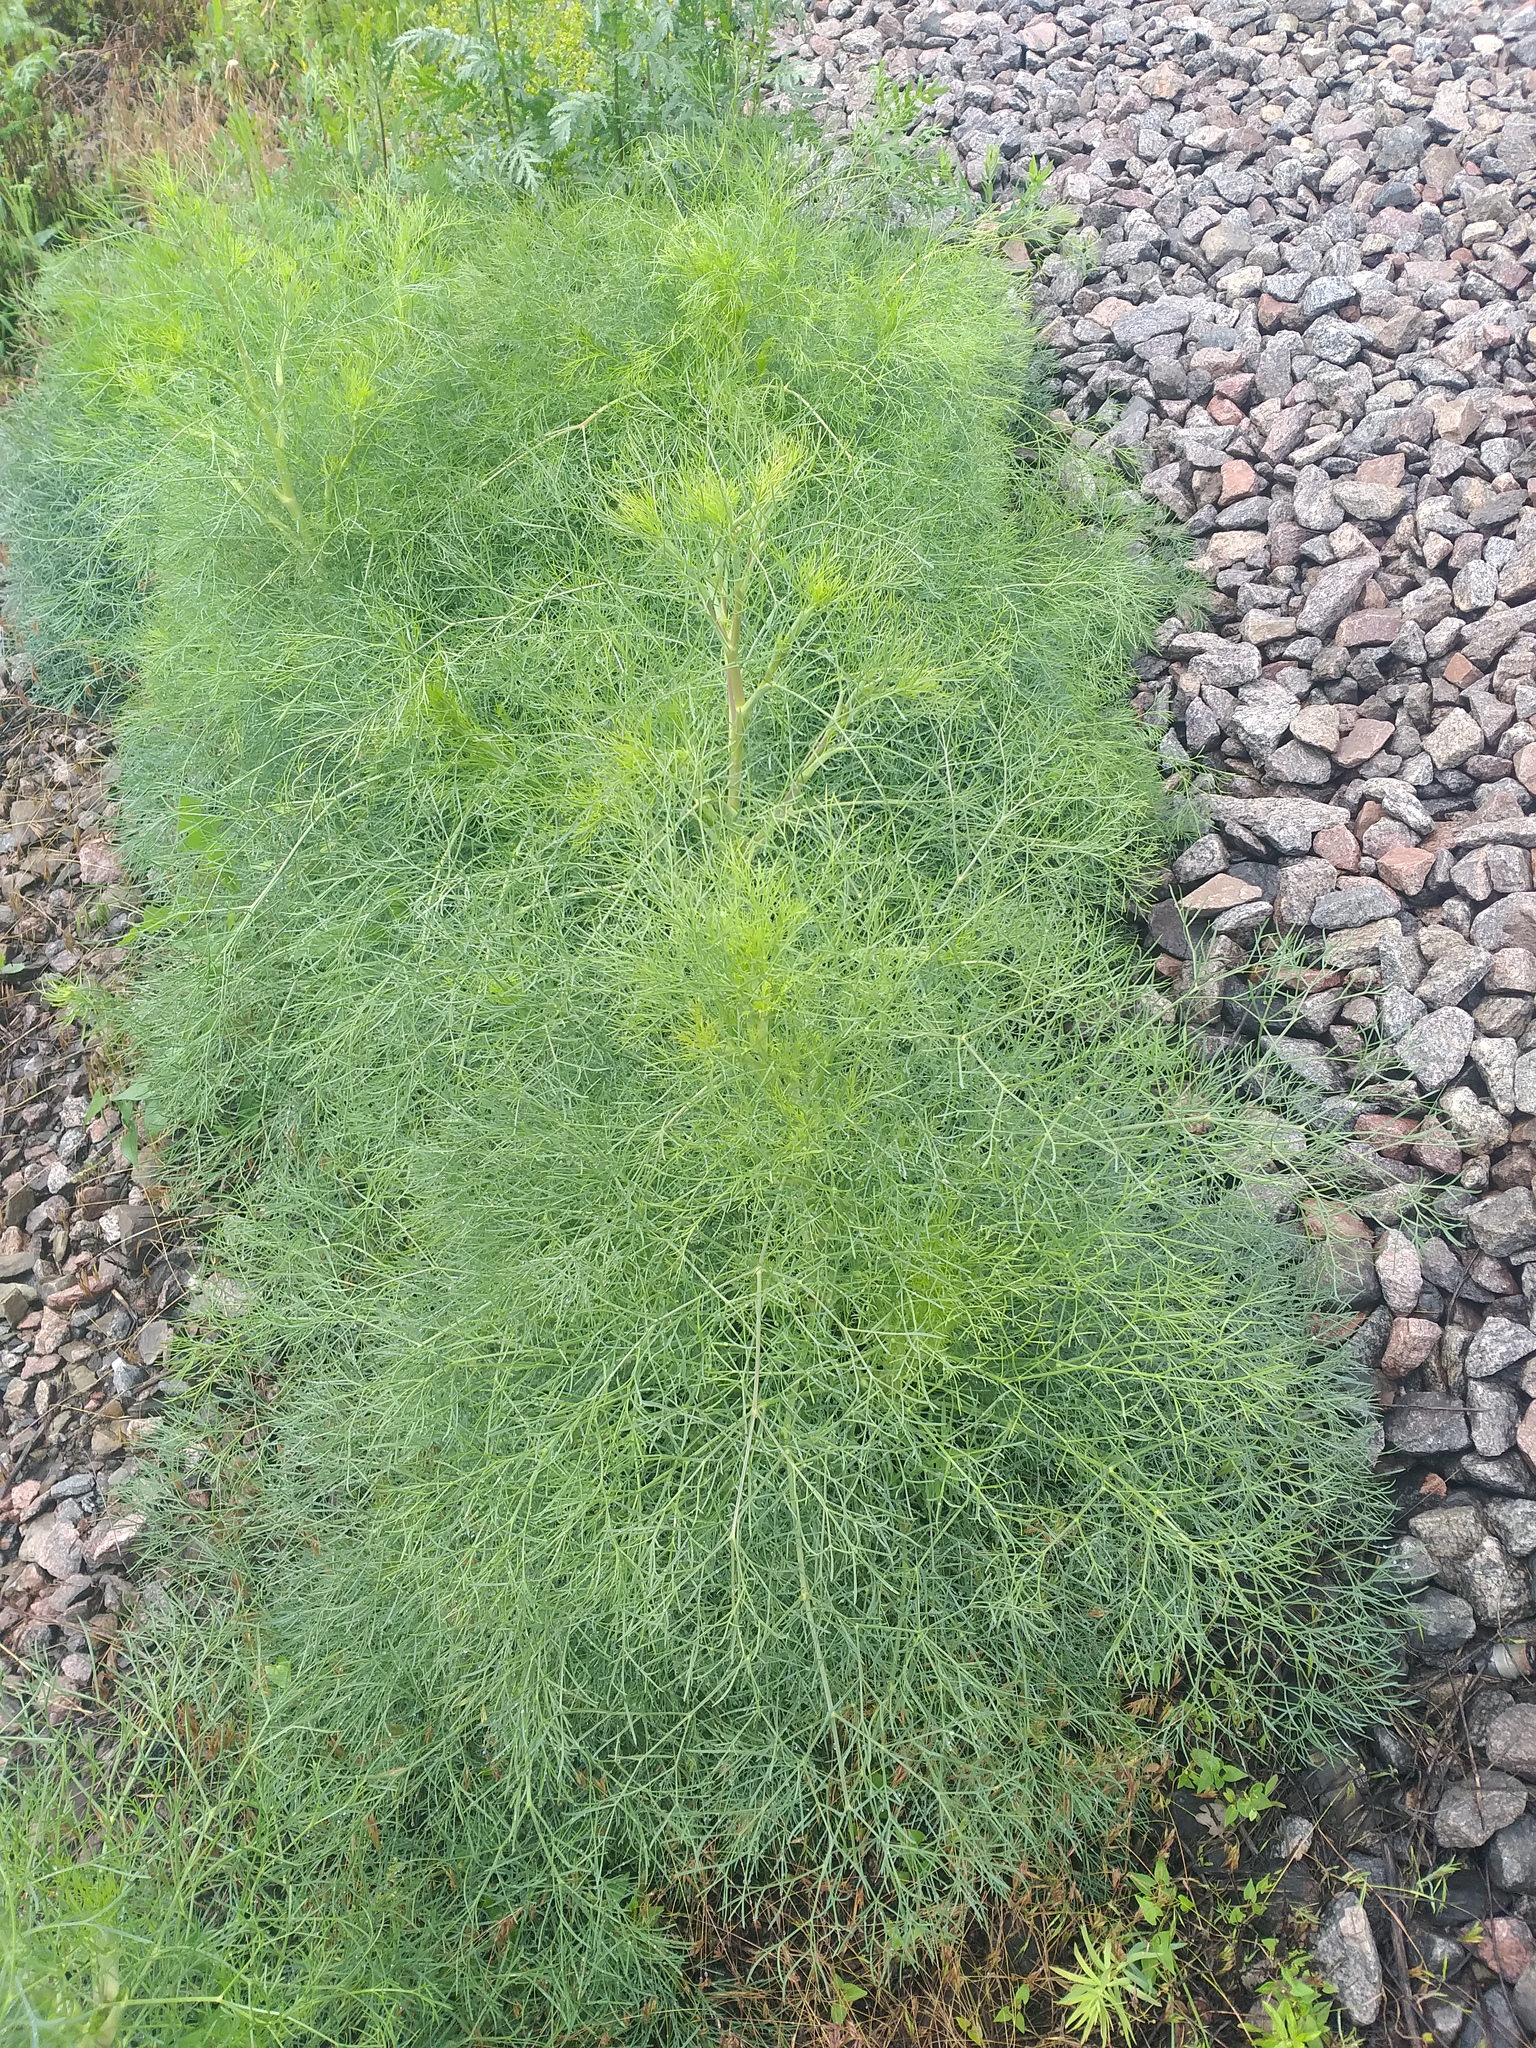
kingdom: Plantae
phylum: Tracheophyta
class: Magnoliopsida
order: Apiales
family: Apiaceae
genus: Seseli
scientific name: Seseli arenarium
